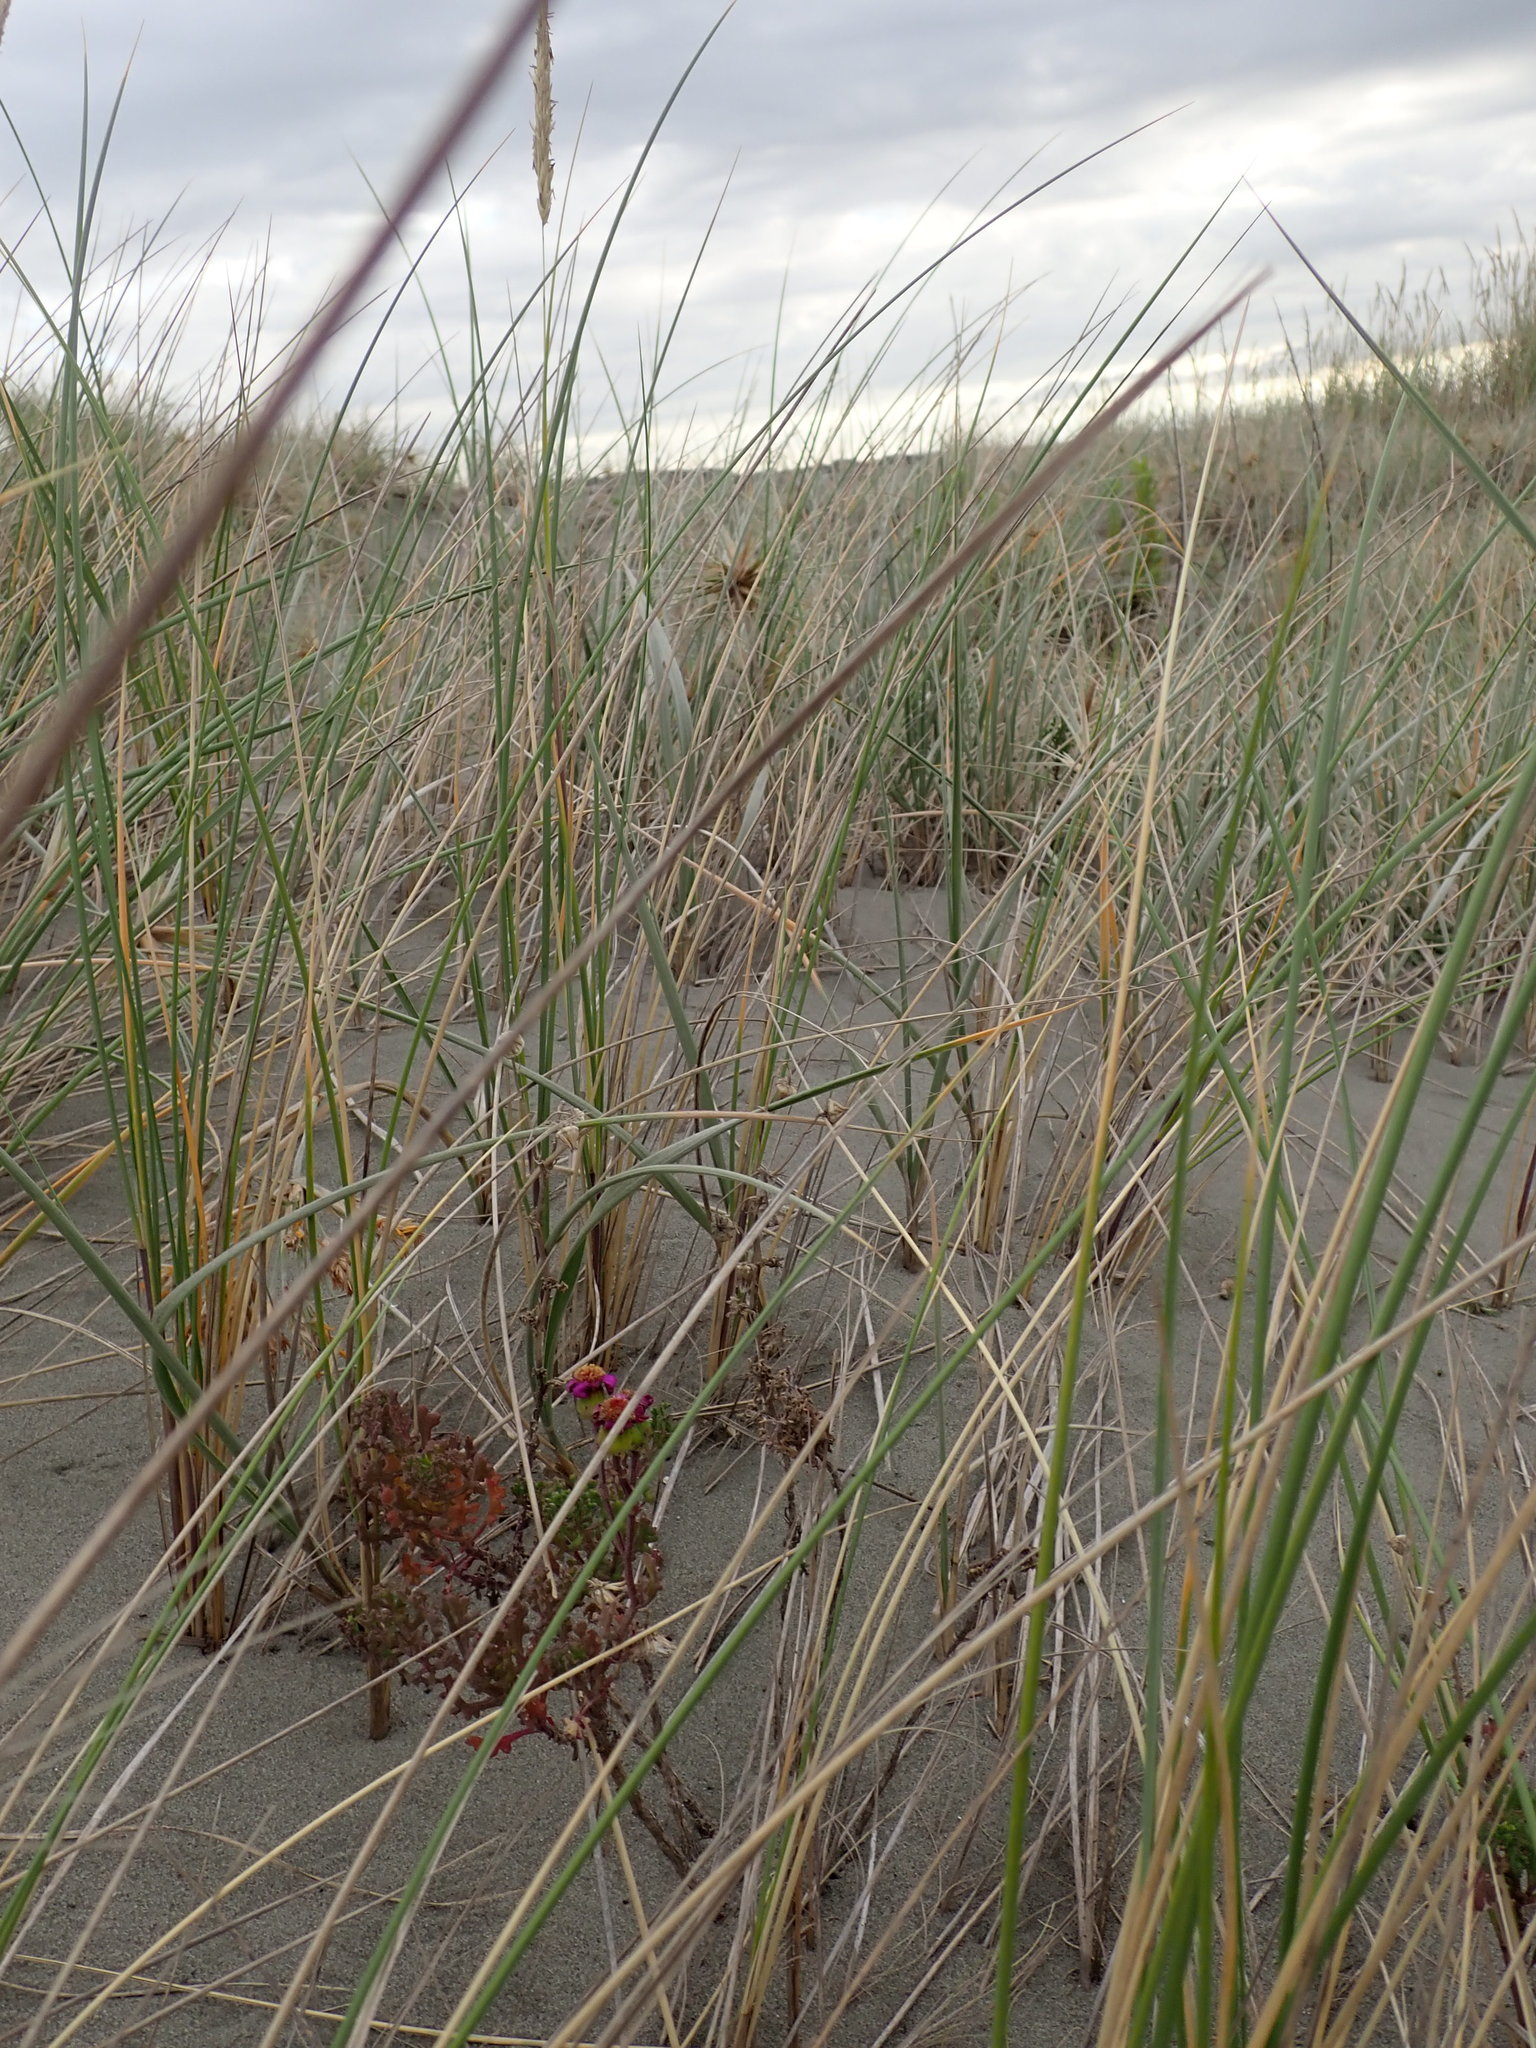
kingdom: Plantae
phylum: Tracheophyta
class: Magnoliopsida
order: Asterales
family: Asteraceae
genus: Senecio
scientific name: Senecio elegans
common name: Purple groundsel
